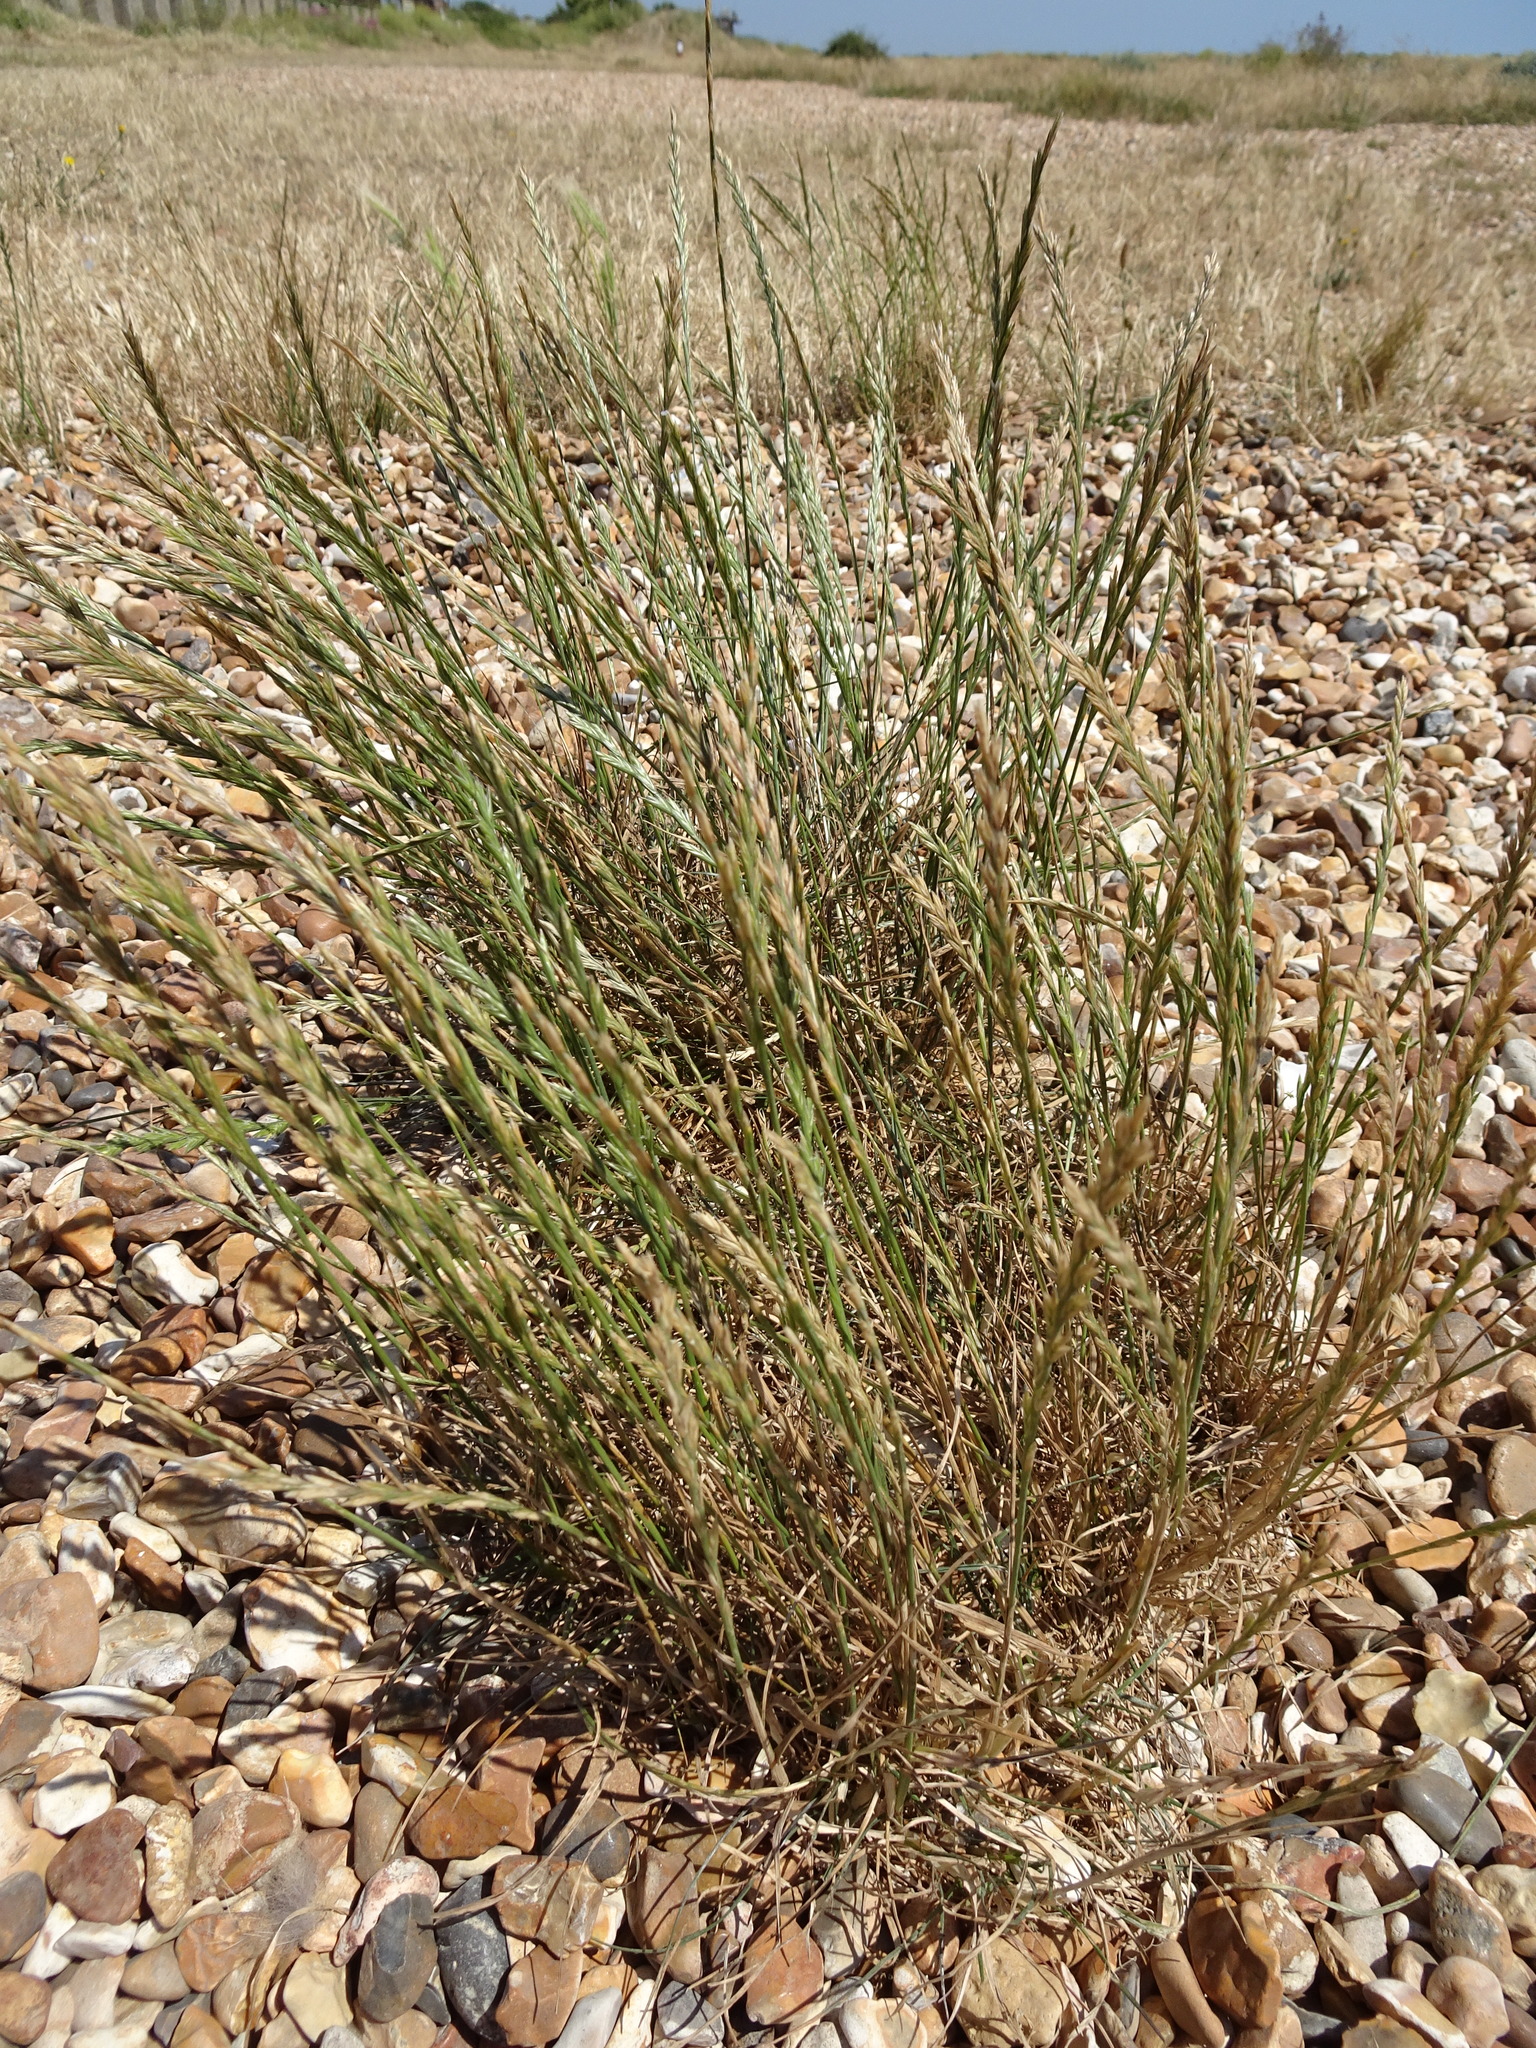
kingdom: Plantae
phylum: Tracheophyta
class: Liliopsida
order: Poales
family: Poaceae
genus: Lolium
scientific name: Lolium perenne
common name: Perennial ryegrass
